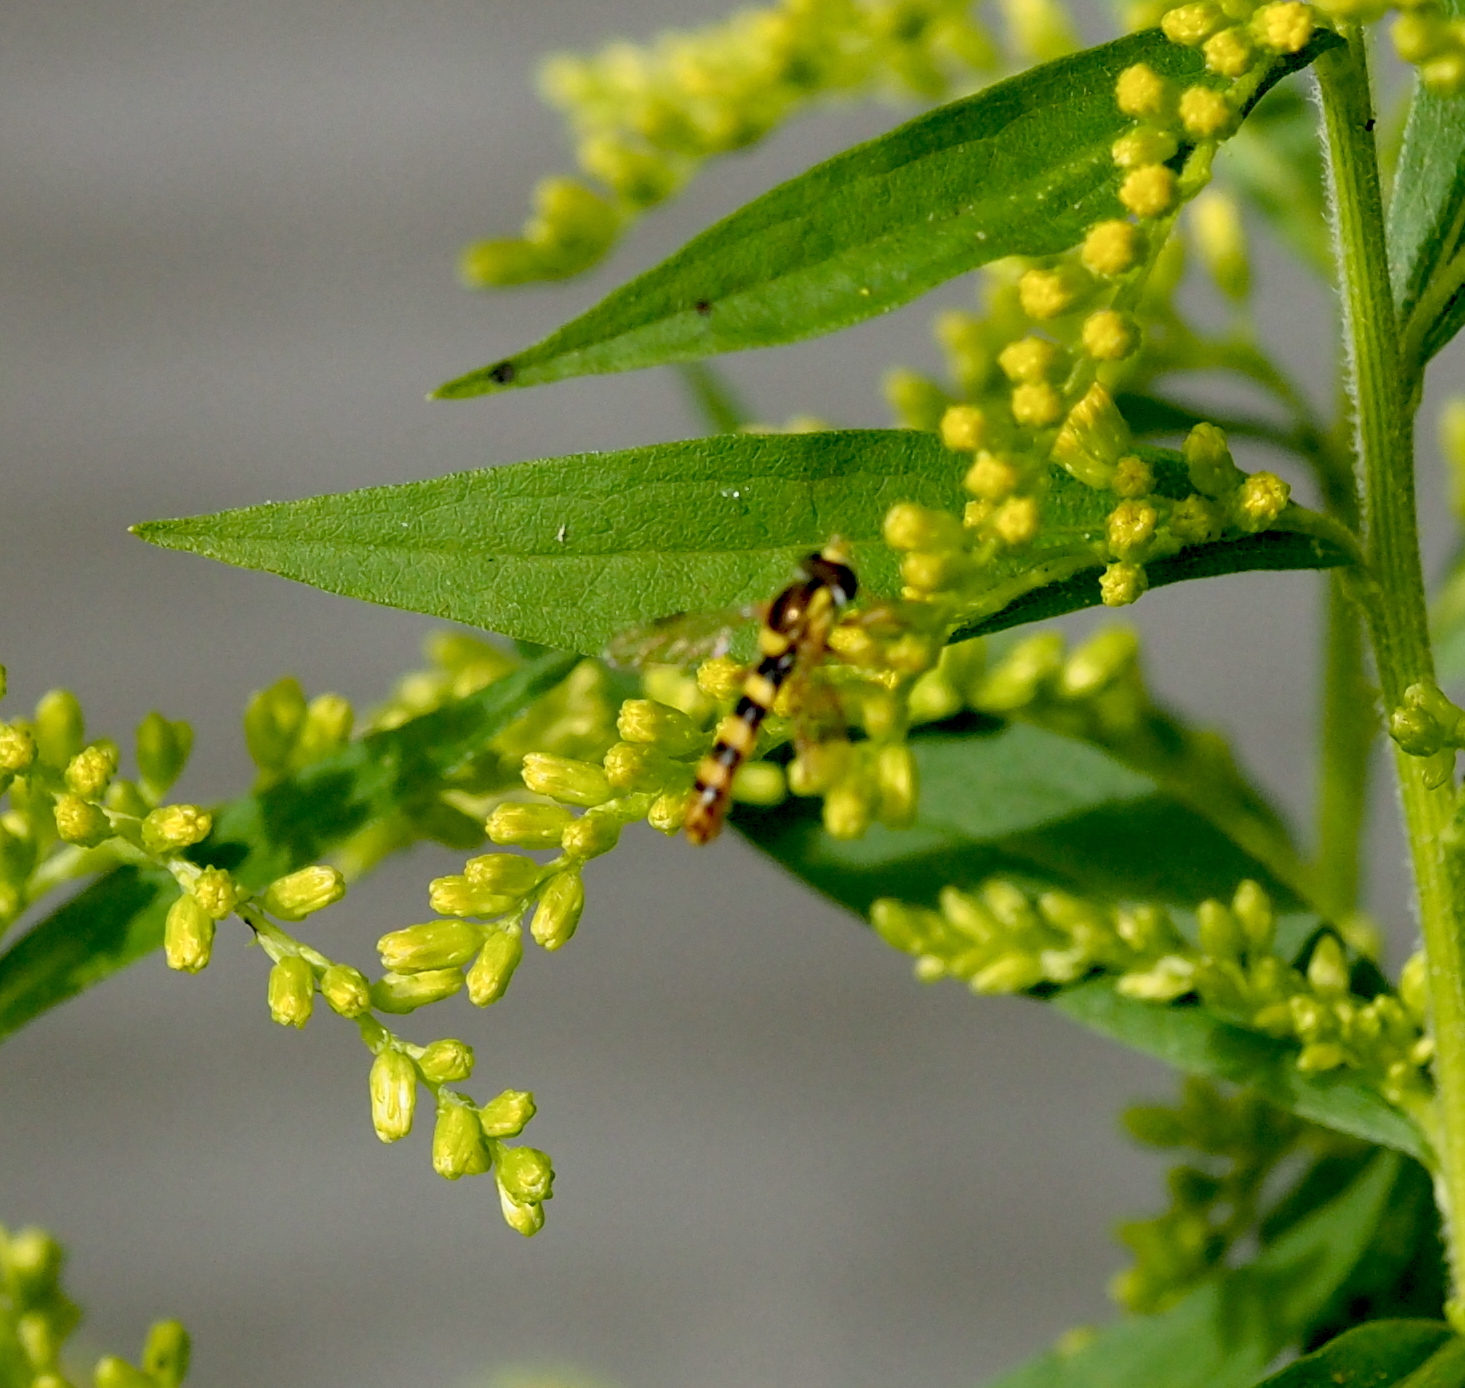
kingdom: Animalia
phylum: Arthropoda
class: Insecta
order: Diptera
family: Syrphidae
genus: Sphaerophoria
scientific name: Sphaerophoria scripta
